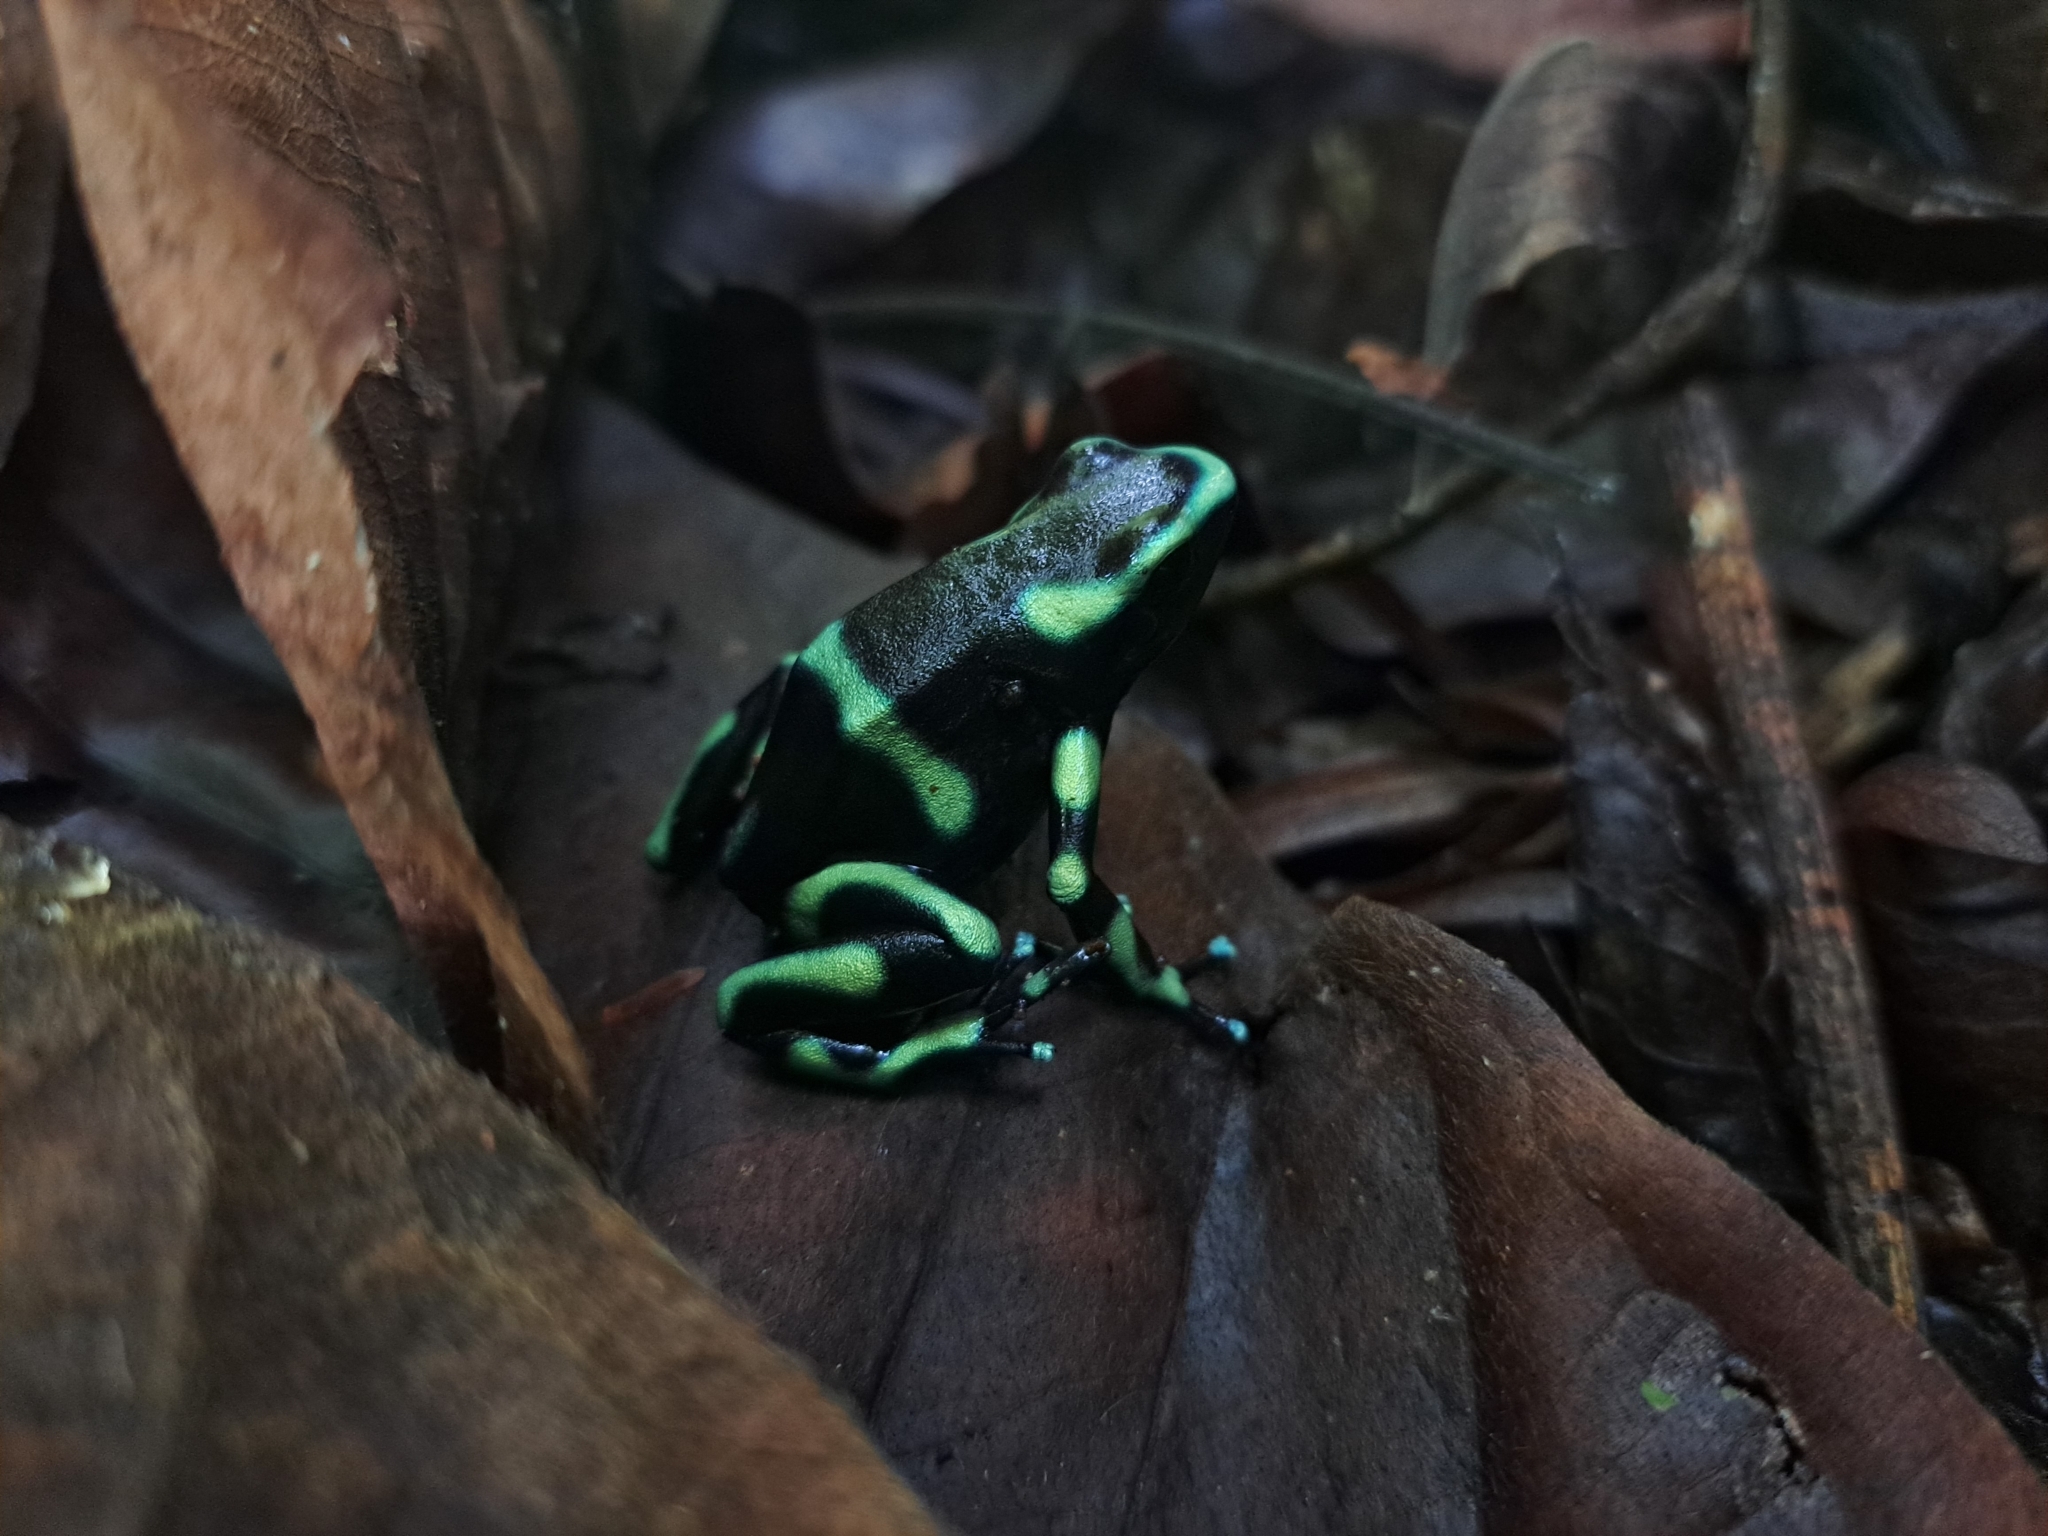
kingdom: Animalia
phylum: Chordata
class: Amphibia
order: Anura
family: Dendrobatidae
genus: Dendrobates
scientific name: Dendrobates auratus
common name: Green and black poison dart frog
